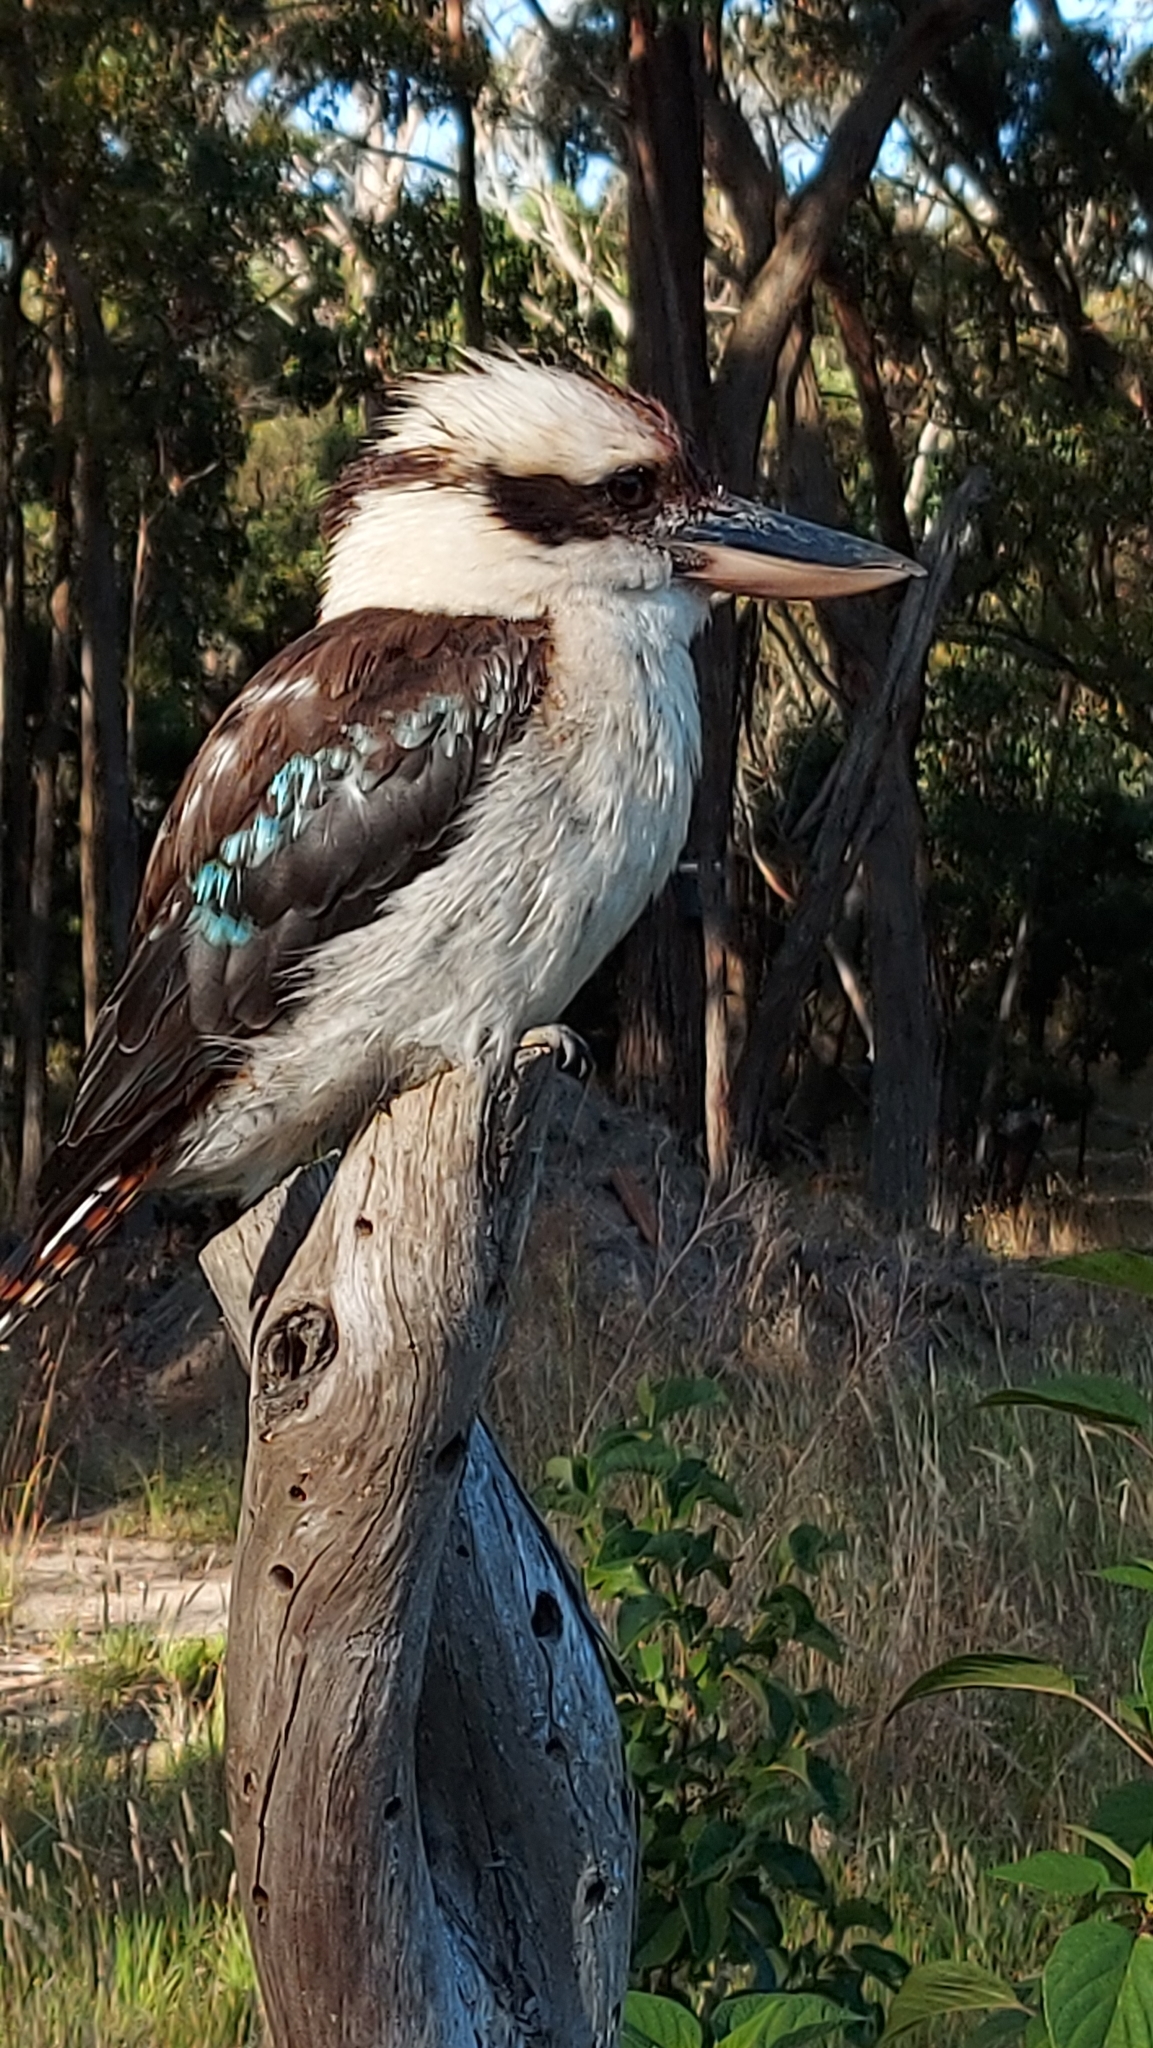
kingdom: Animalia
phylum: Chordata
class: Aves
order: Coraciiformes
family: Alcedinidae
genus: Dacelo
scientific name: Dacelo novaeguineae
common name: Laughing kookaburra
